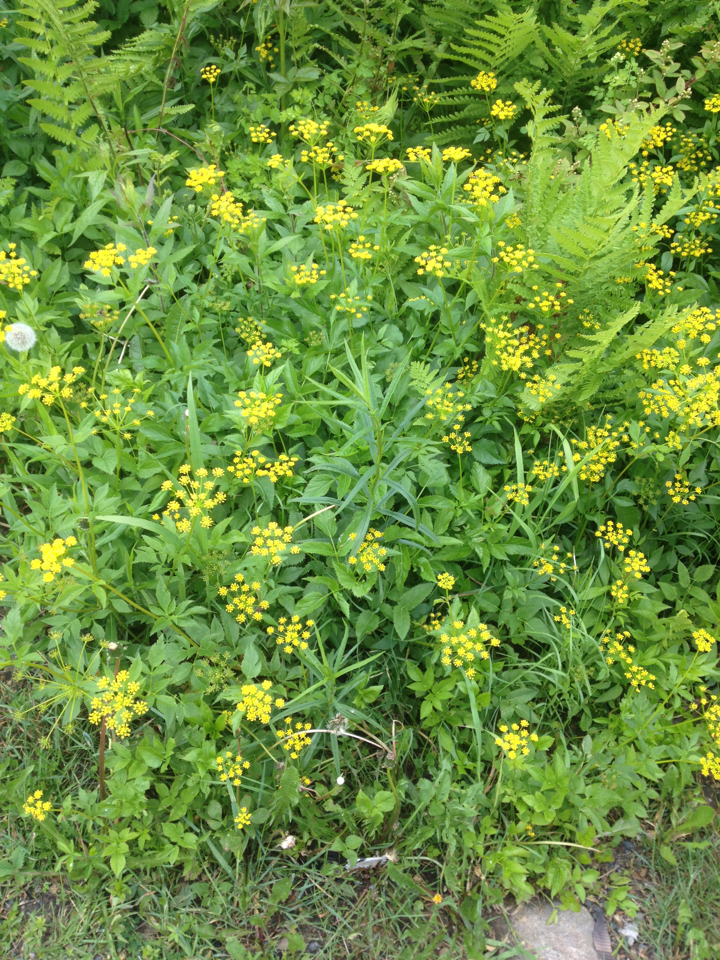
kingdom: Plantae
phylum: Tracheophyta
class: Magnoliopsida
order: Apiales
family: Apiaceae
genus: Zizia
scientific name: Zizia aurea
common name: Golden alexanders
